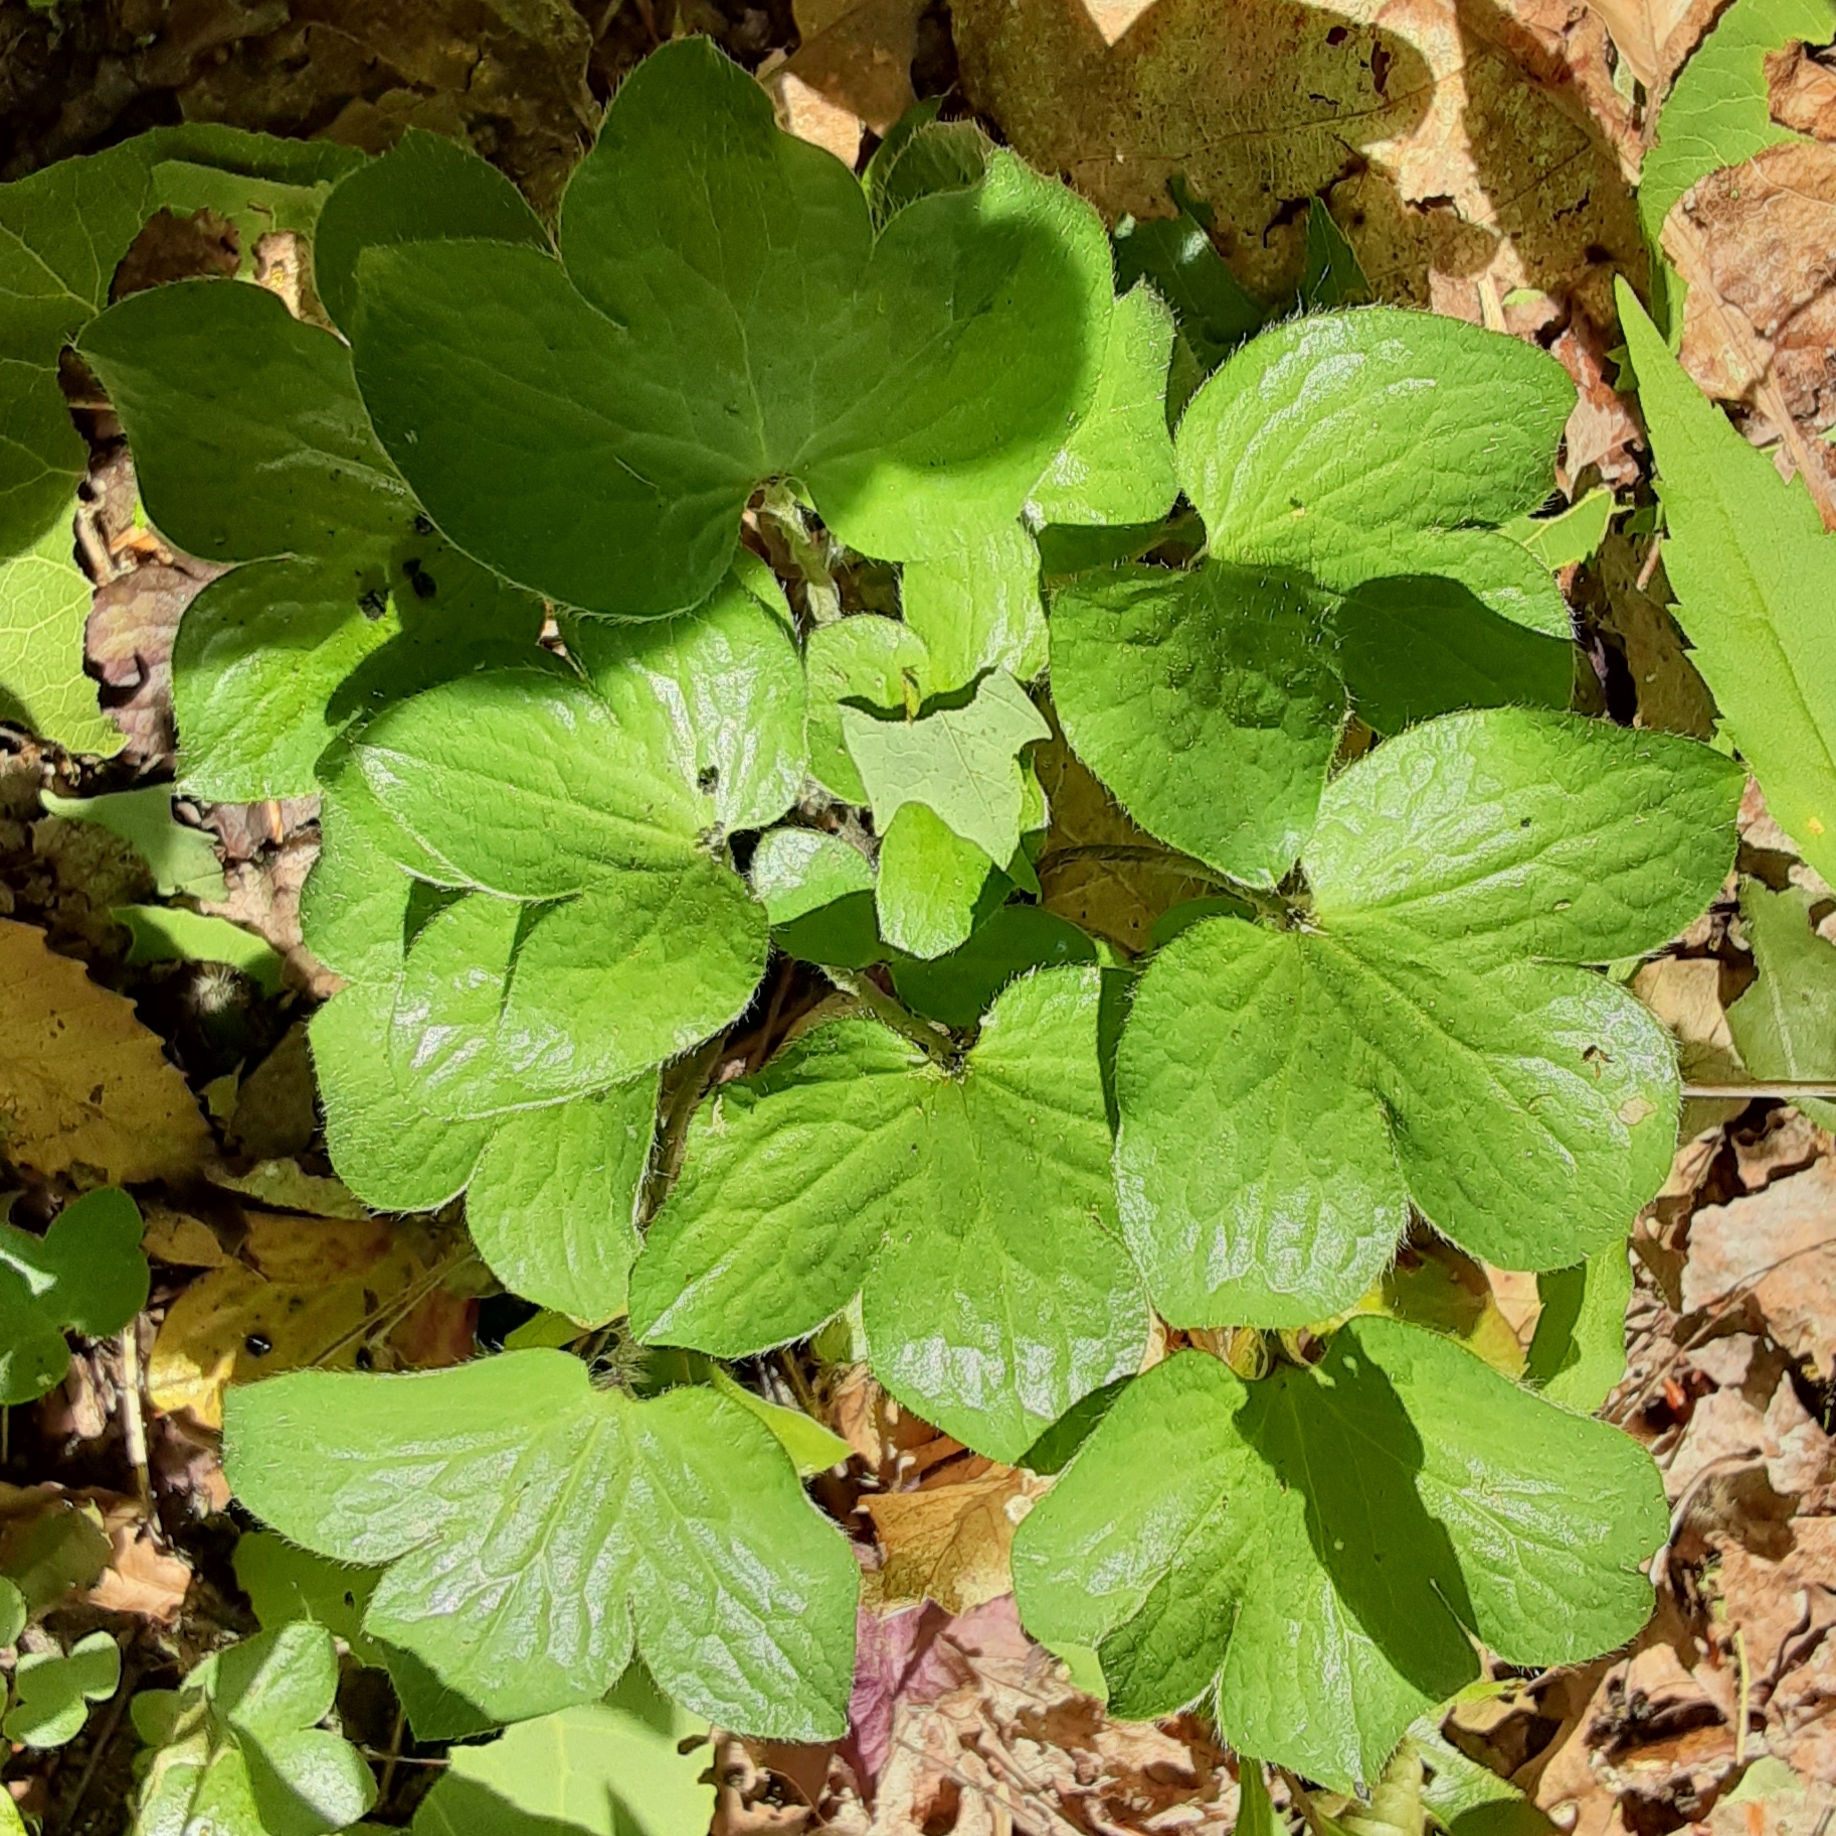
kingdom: Plantae
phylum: Tracheophyta
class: Magnoliopsida
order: Ranunculales
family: Ranunculaceae
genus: Hepatica
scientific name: Hepatica acutiloba
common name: Sharp-lobed hepatica
